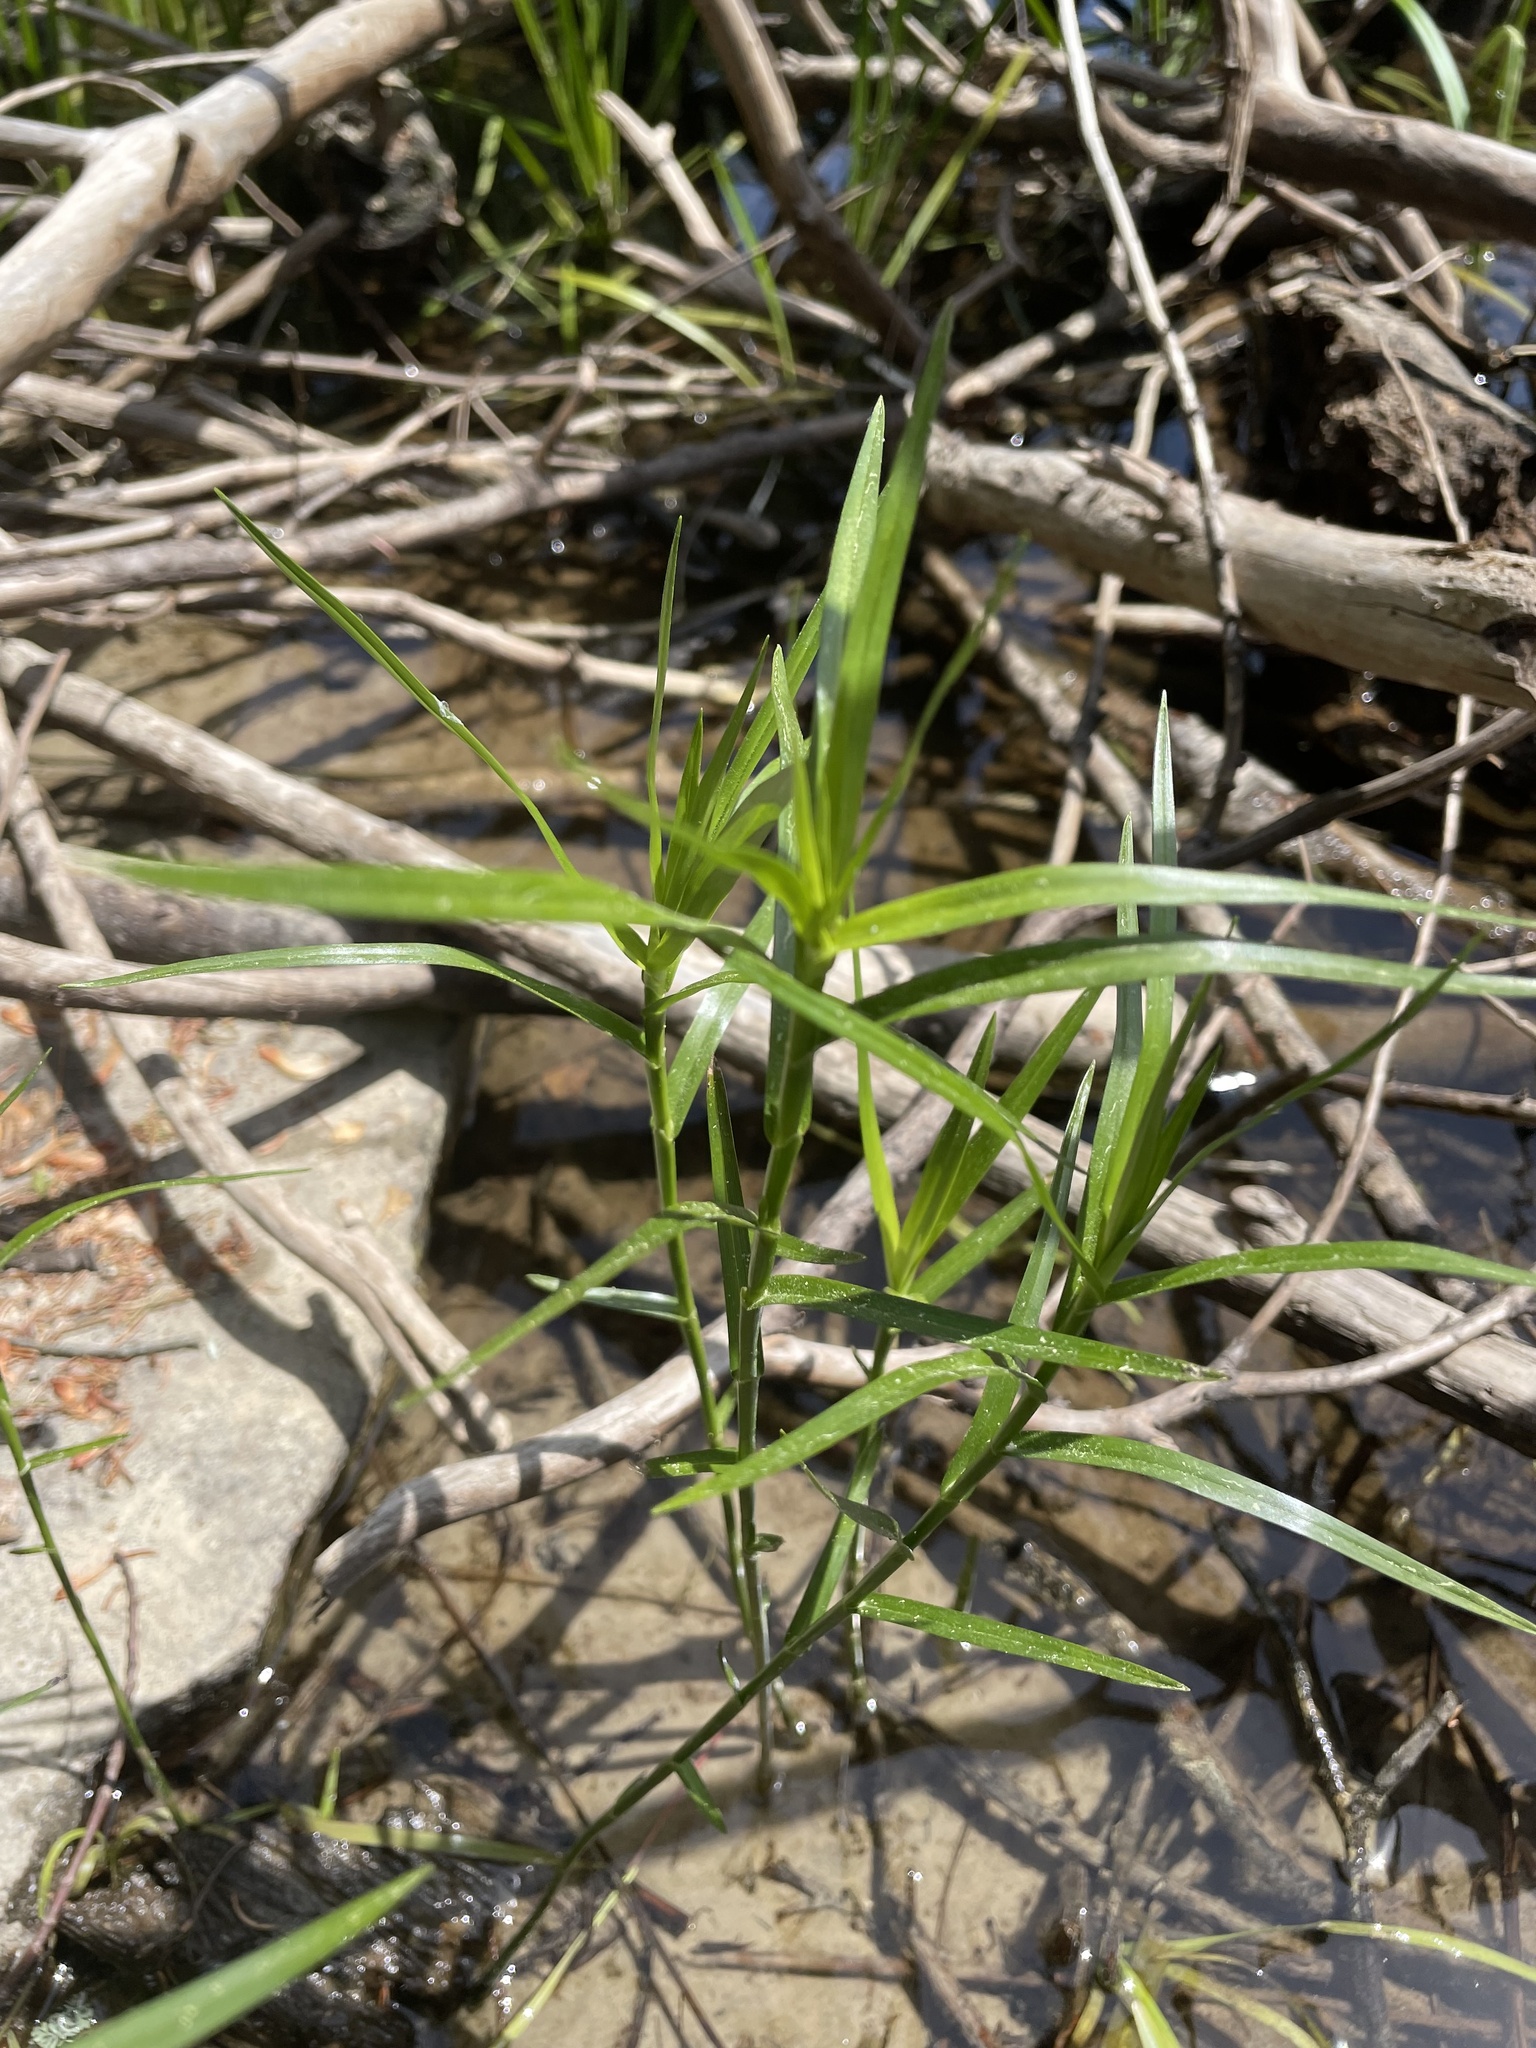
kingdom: Plantae
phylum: Tracheophyta
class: Liliopsida
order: Poales
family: Cyperaceae
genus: Dulichium
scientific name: Dulichium arundinaceum
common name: Three-way sedge
